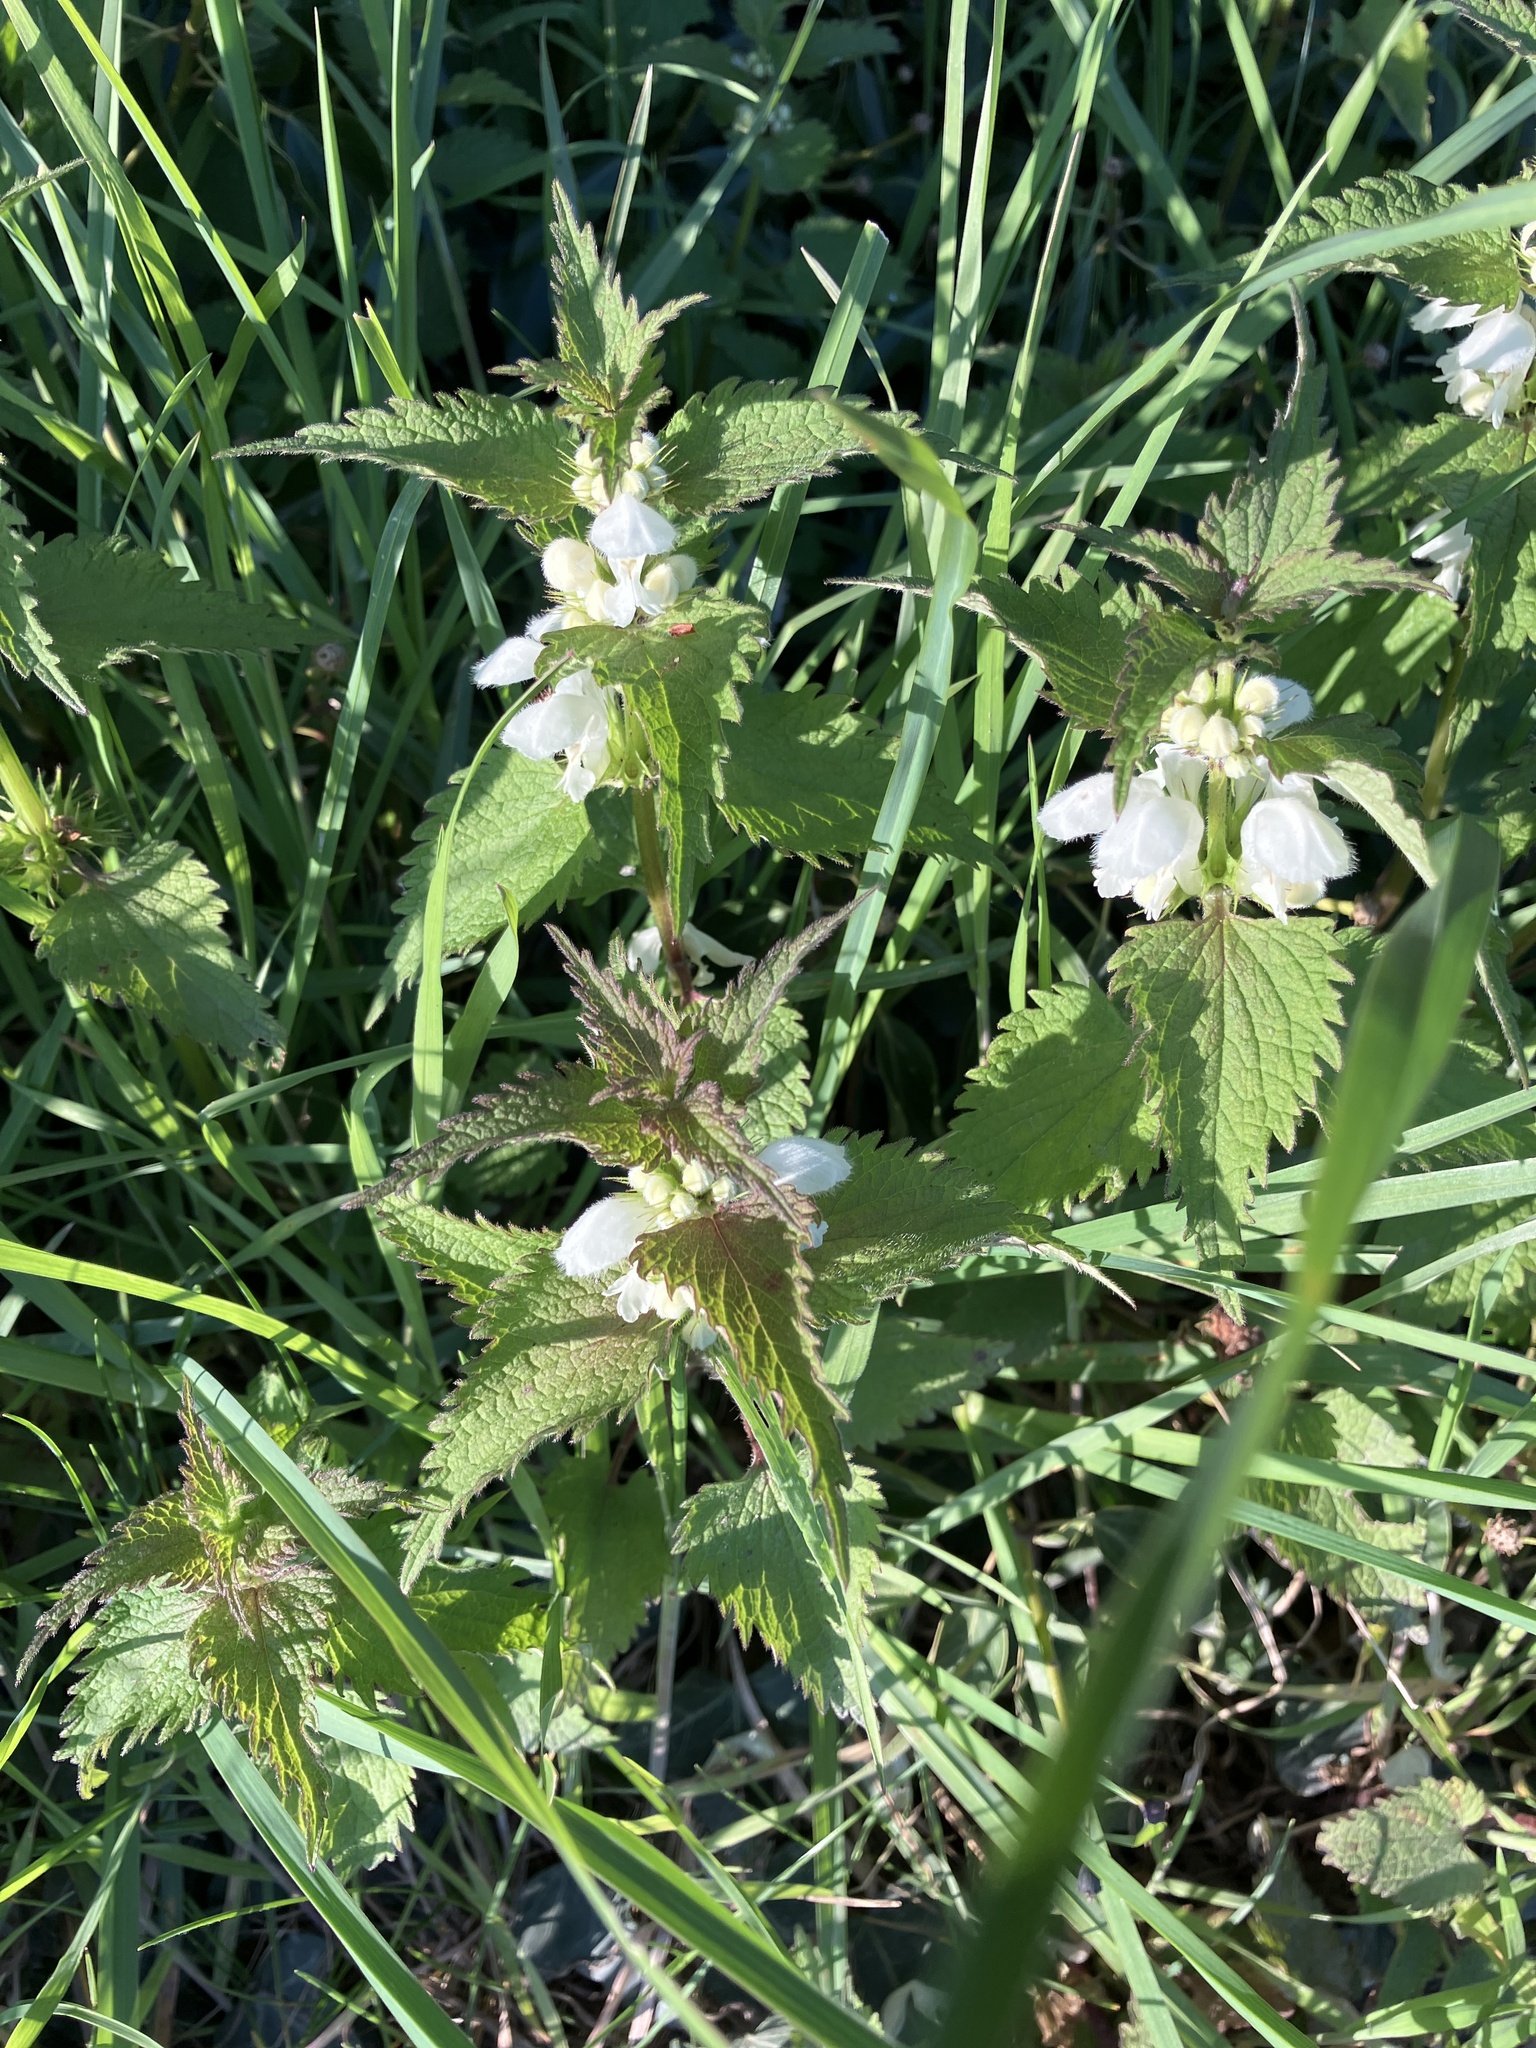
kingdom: Plantae
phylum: Tracheophyta
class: Magnoliopsida
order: Lamiales
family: Lamiaceae
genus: Lamium
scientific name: Lamium album
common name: White dead-nettle
